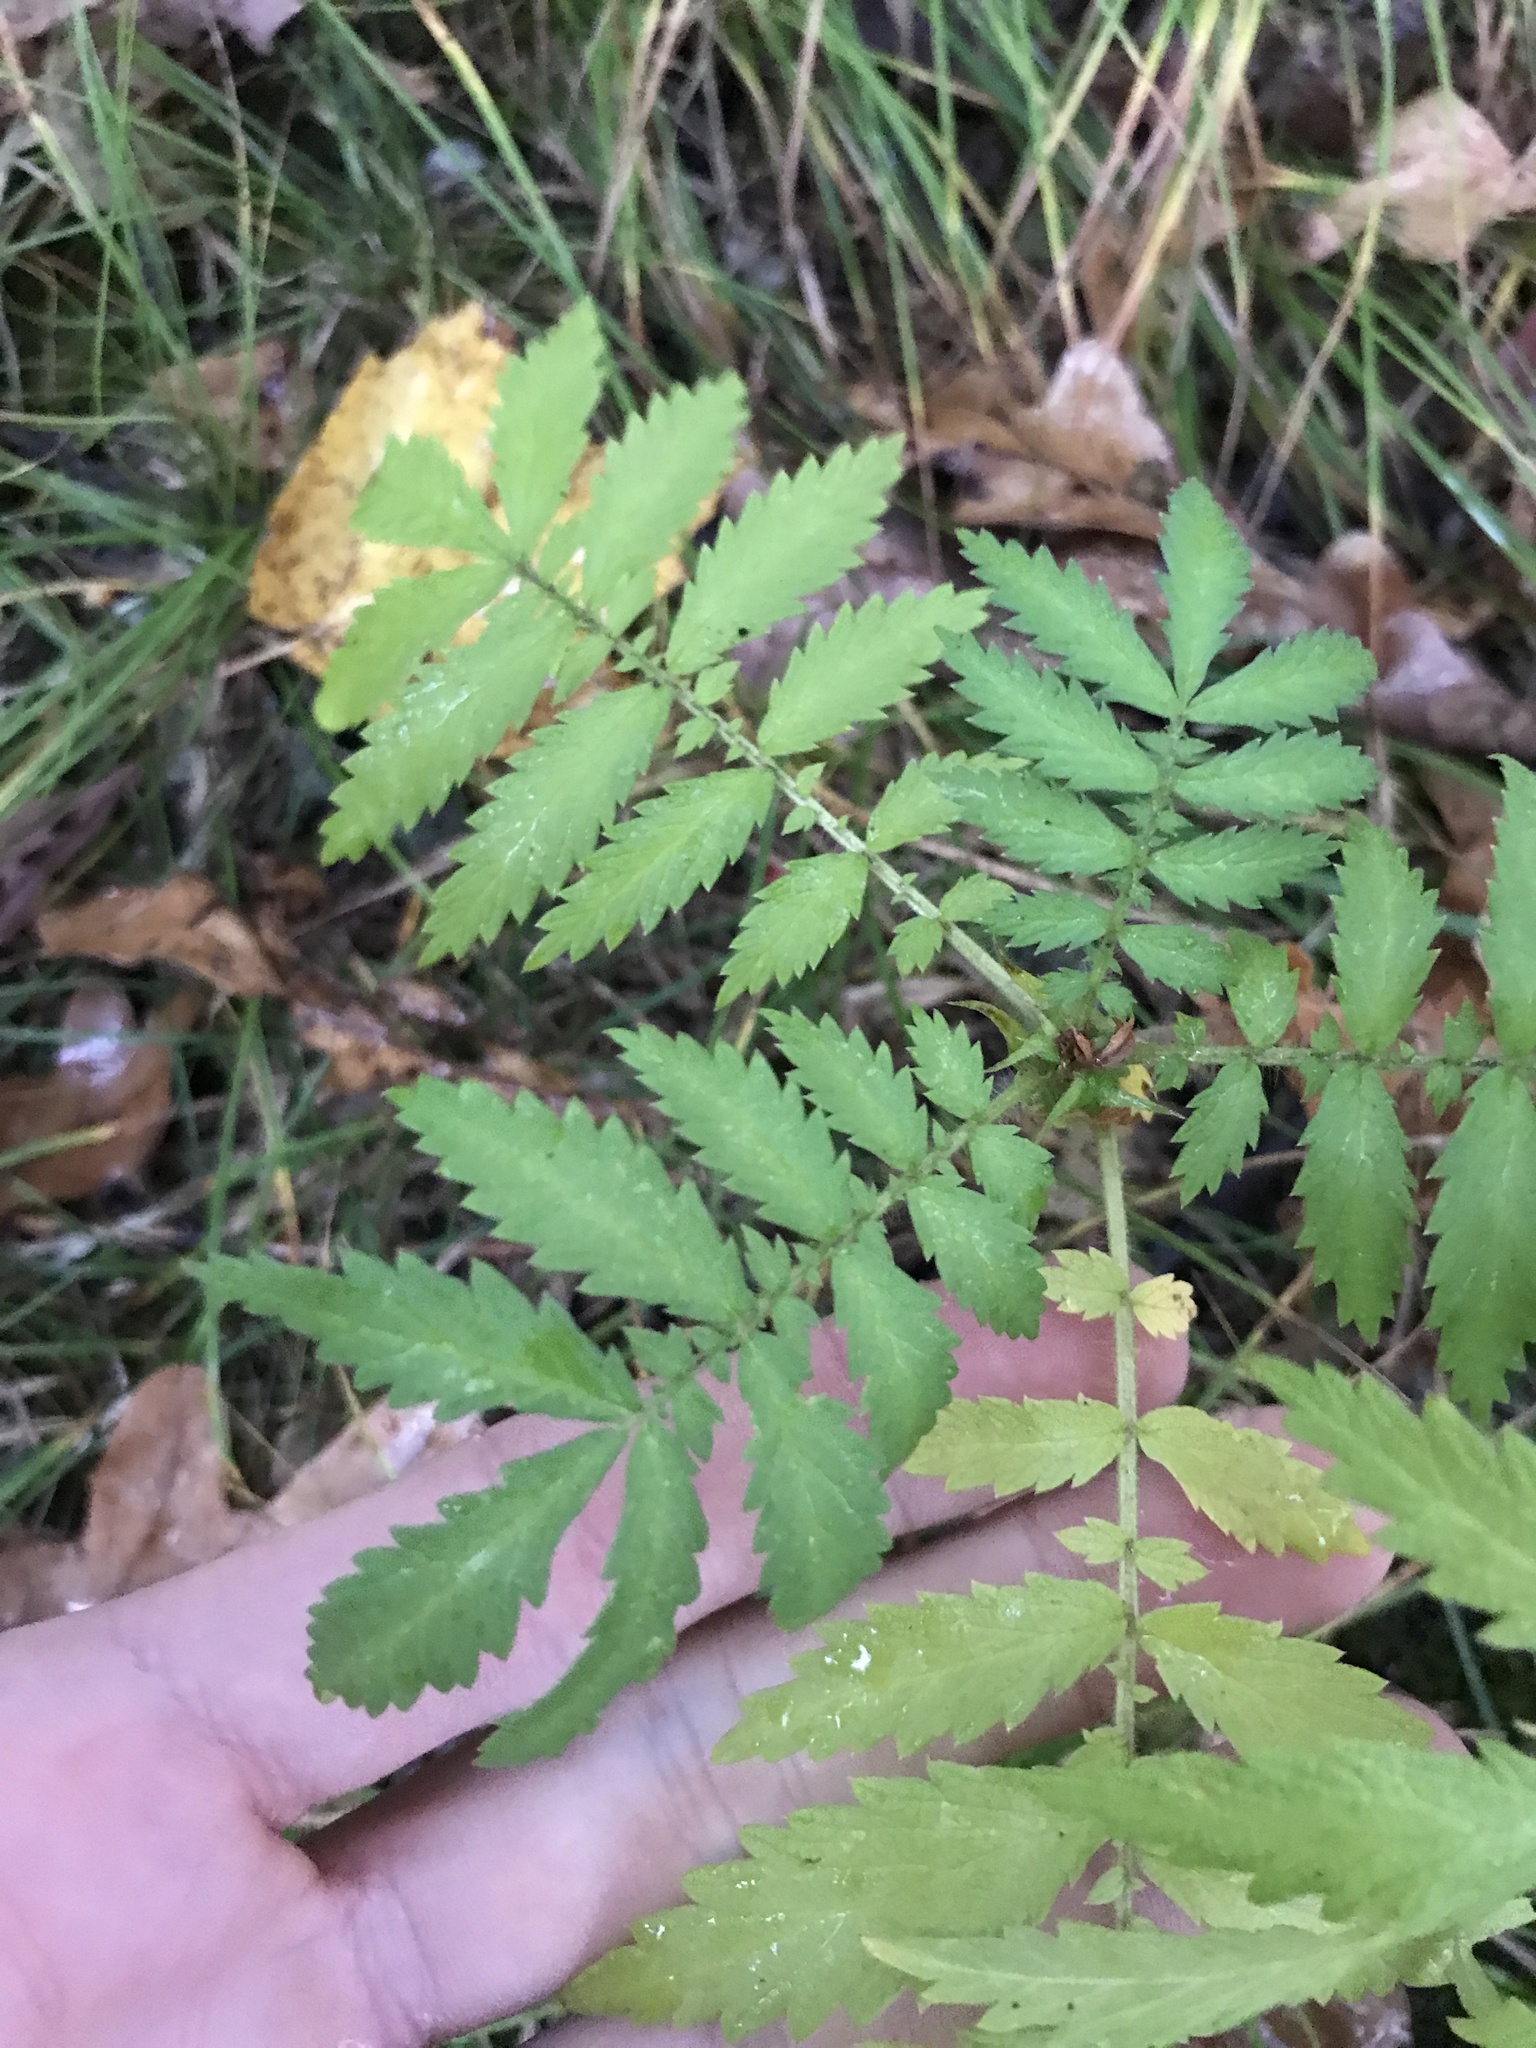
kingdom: Plantae
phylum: Tracheophyta
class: Magnoliopsida
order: Rosales
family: Rosaceae
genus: Agrimonia
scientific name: Agrimonia parviflora
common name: Harvest-lice
